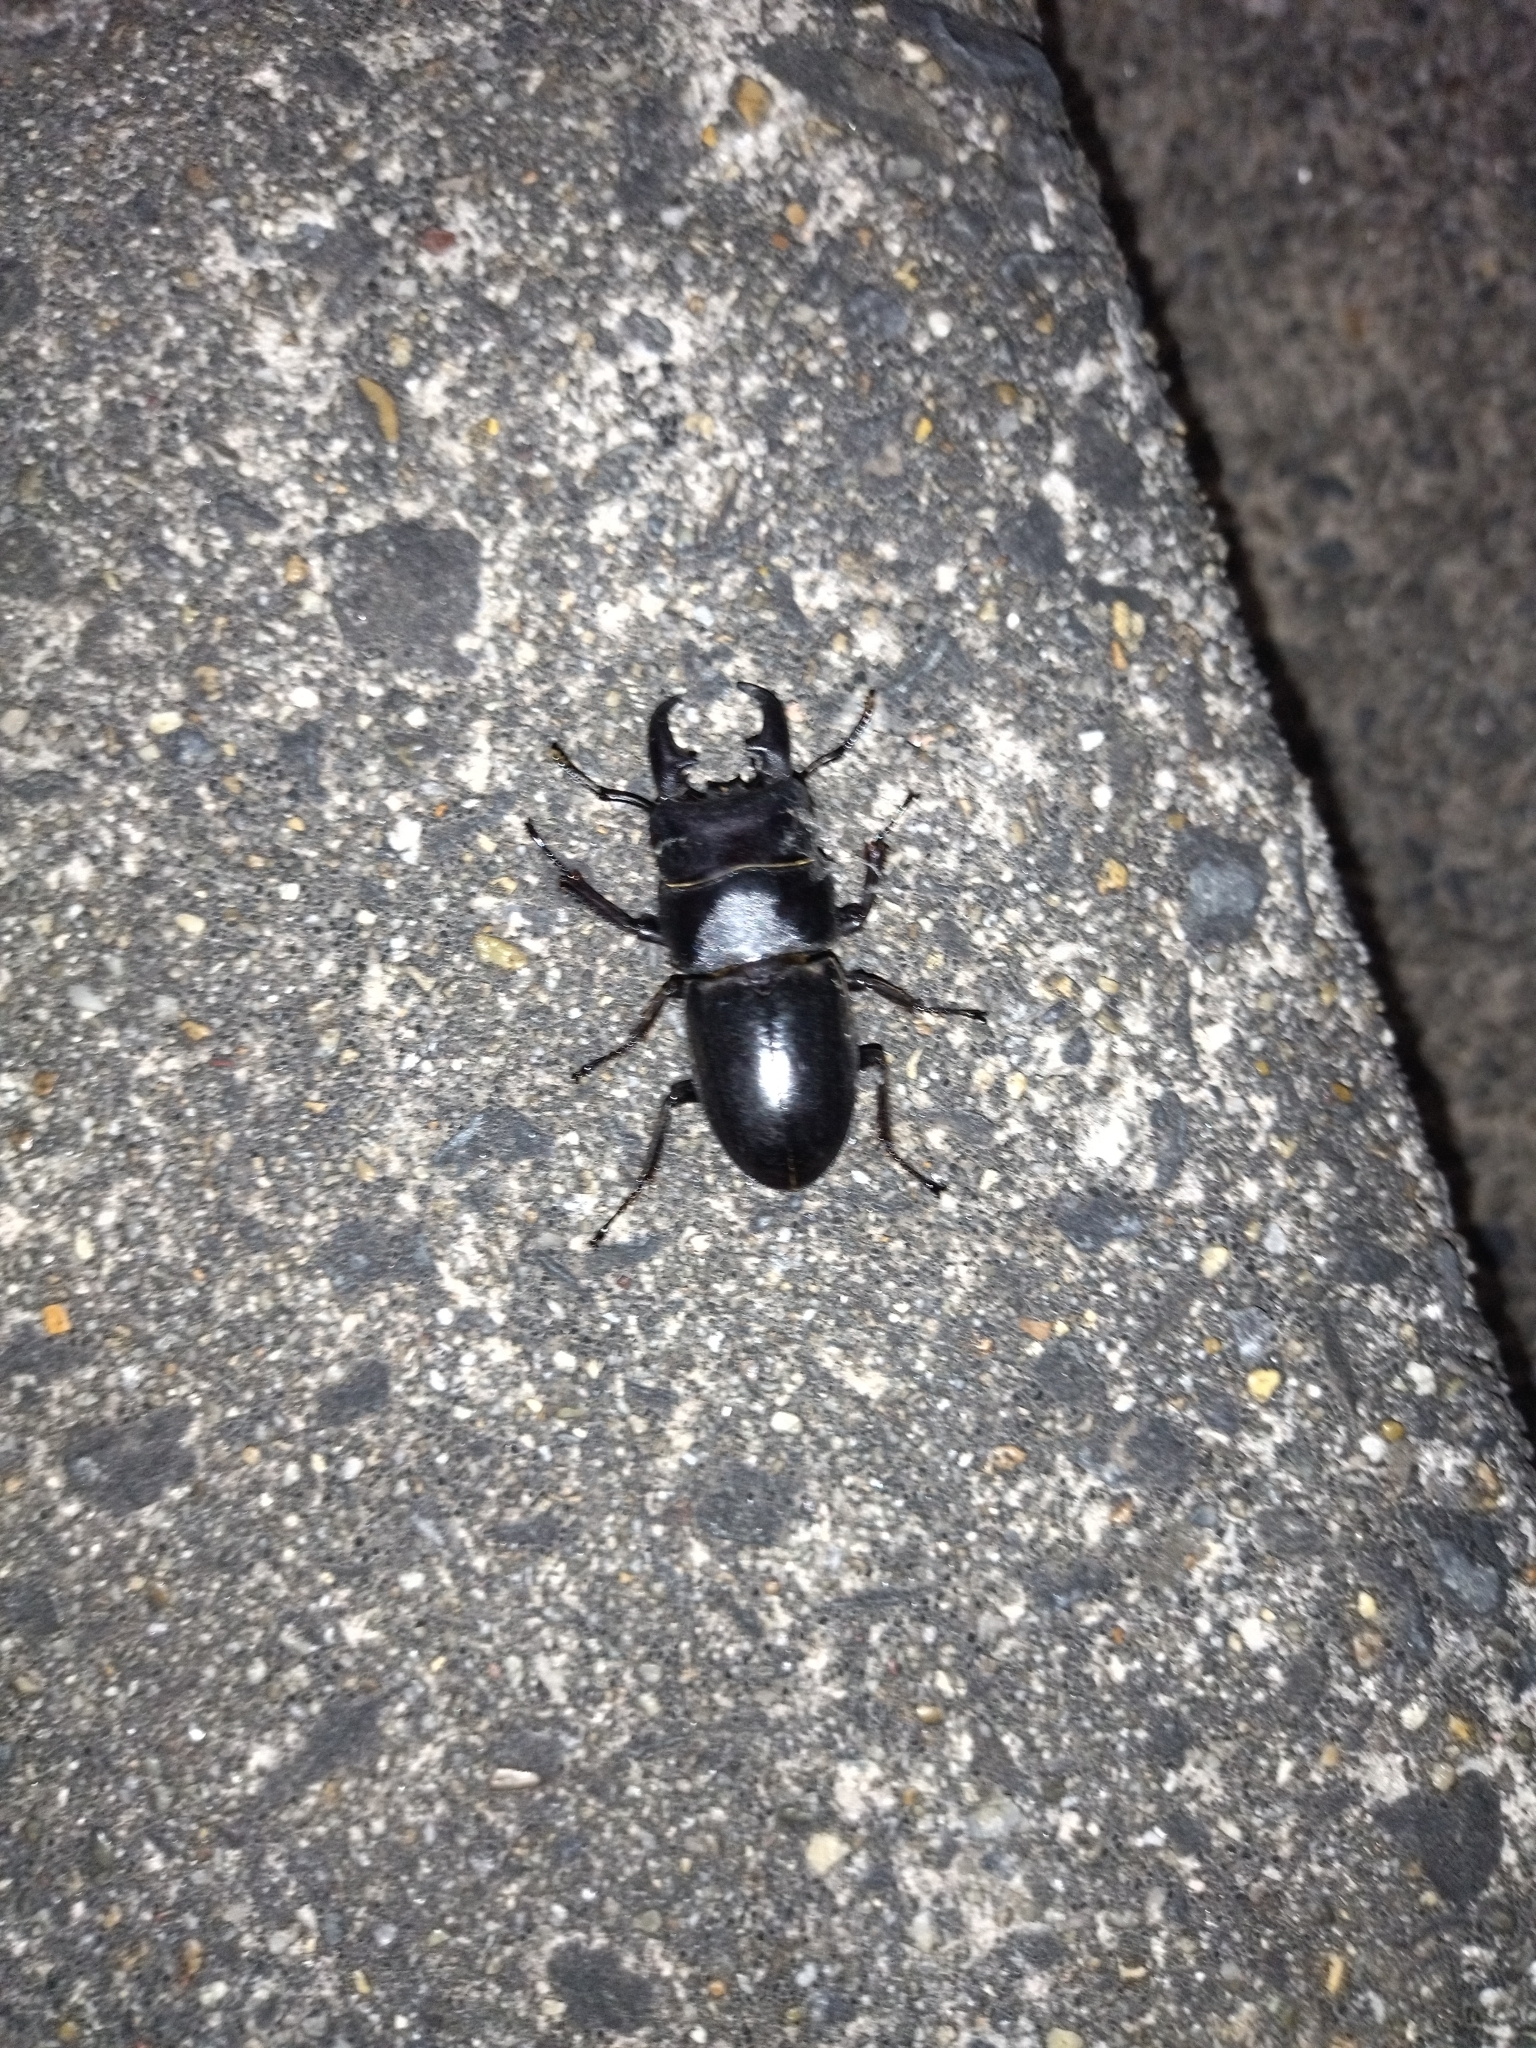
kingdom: Animalia
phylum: Arthropoda
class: Insecta
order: Coleoptera
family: Lucanidae
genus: Serrognathus
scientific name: Serrognathus titanus
